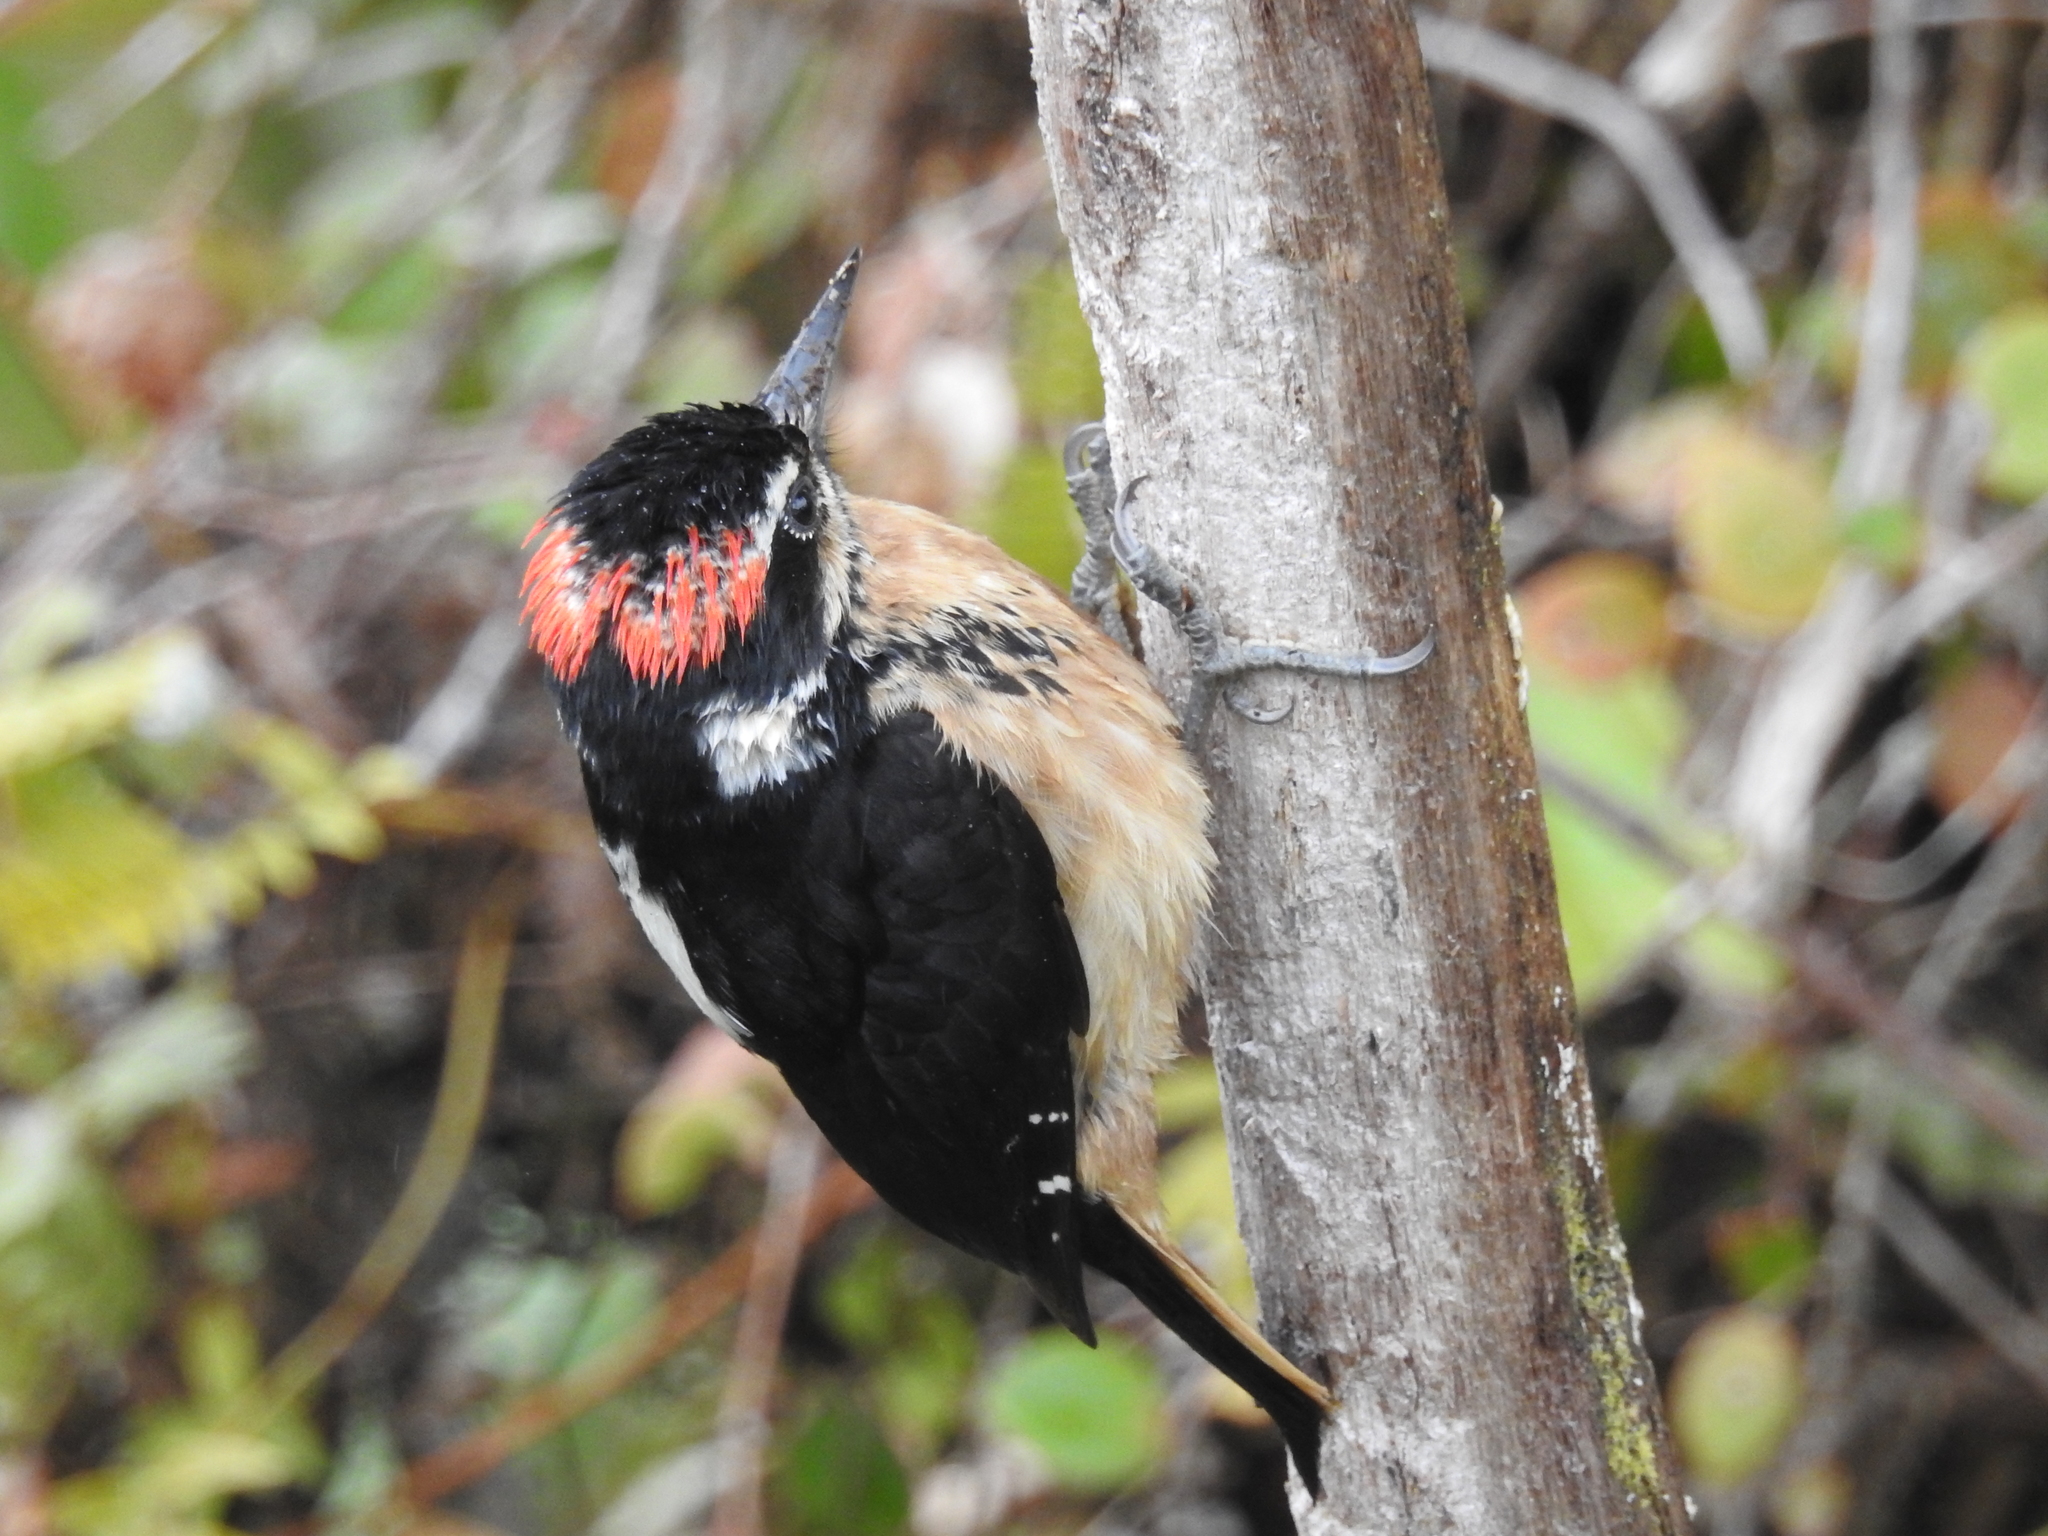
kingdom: Animalia
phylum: Chordata
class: Aves
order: Piciformes
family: Picidae
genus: Leuconotopicus
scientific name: Leuconotopicus villosus
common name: Hairy woodpecker
